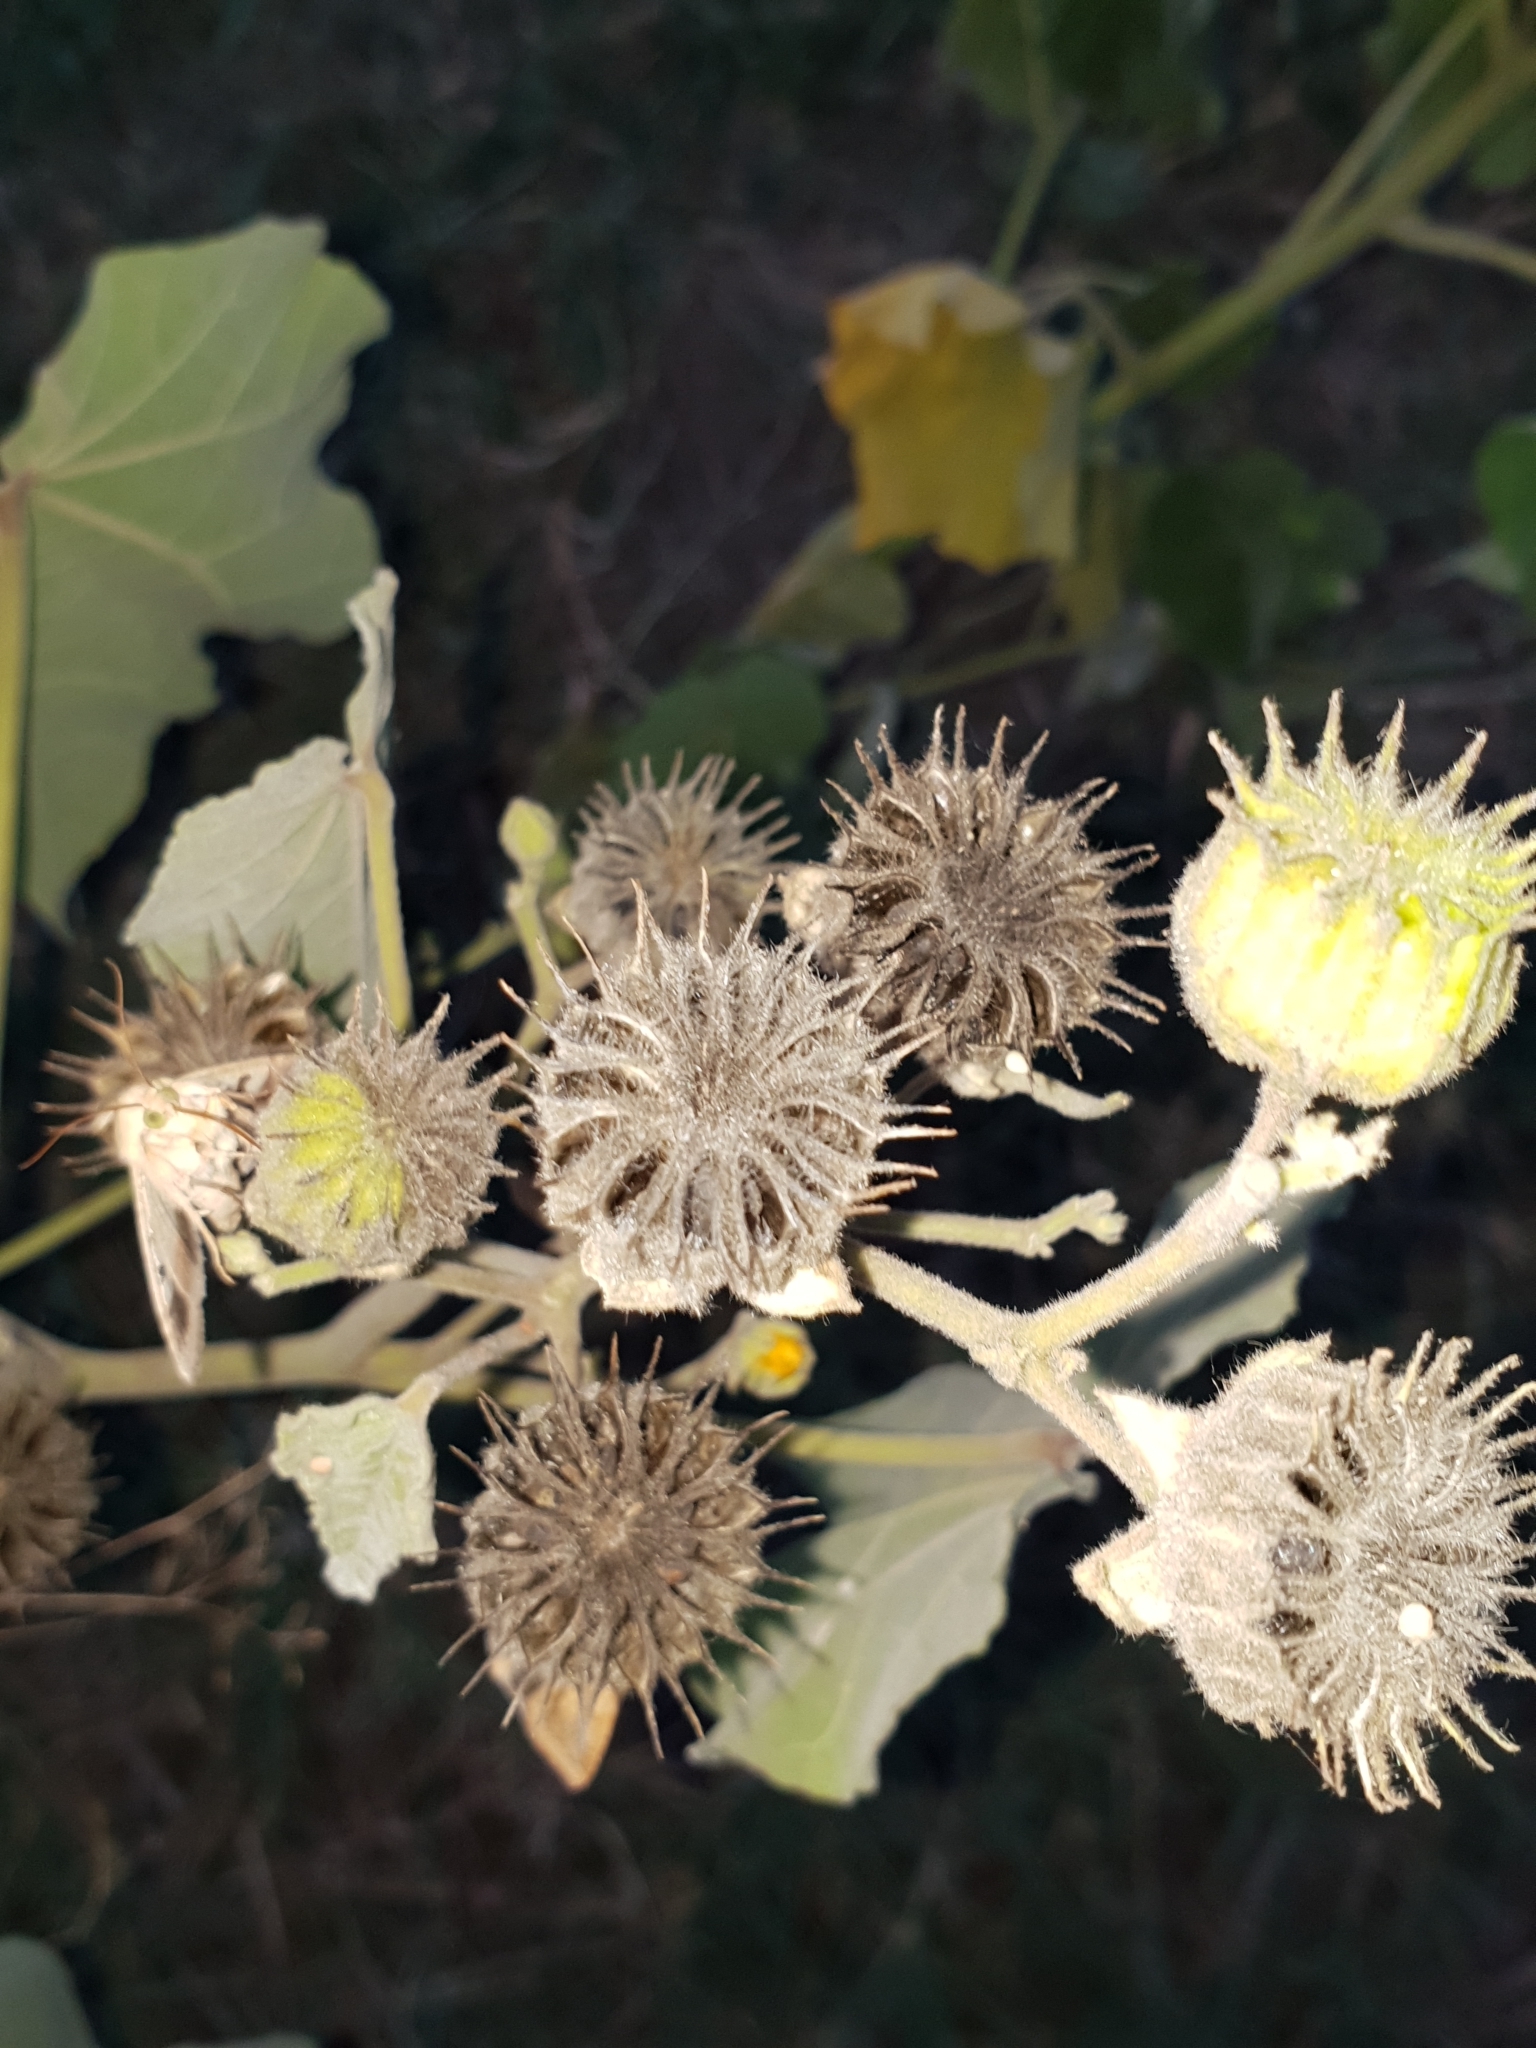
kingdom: Plantae
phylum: Tracheophyta
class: Magnoliopsida
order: Malvales
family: Malvaceae
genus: Abutilon
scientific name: Abutilon theophrasti
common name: Velvetleaf
